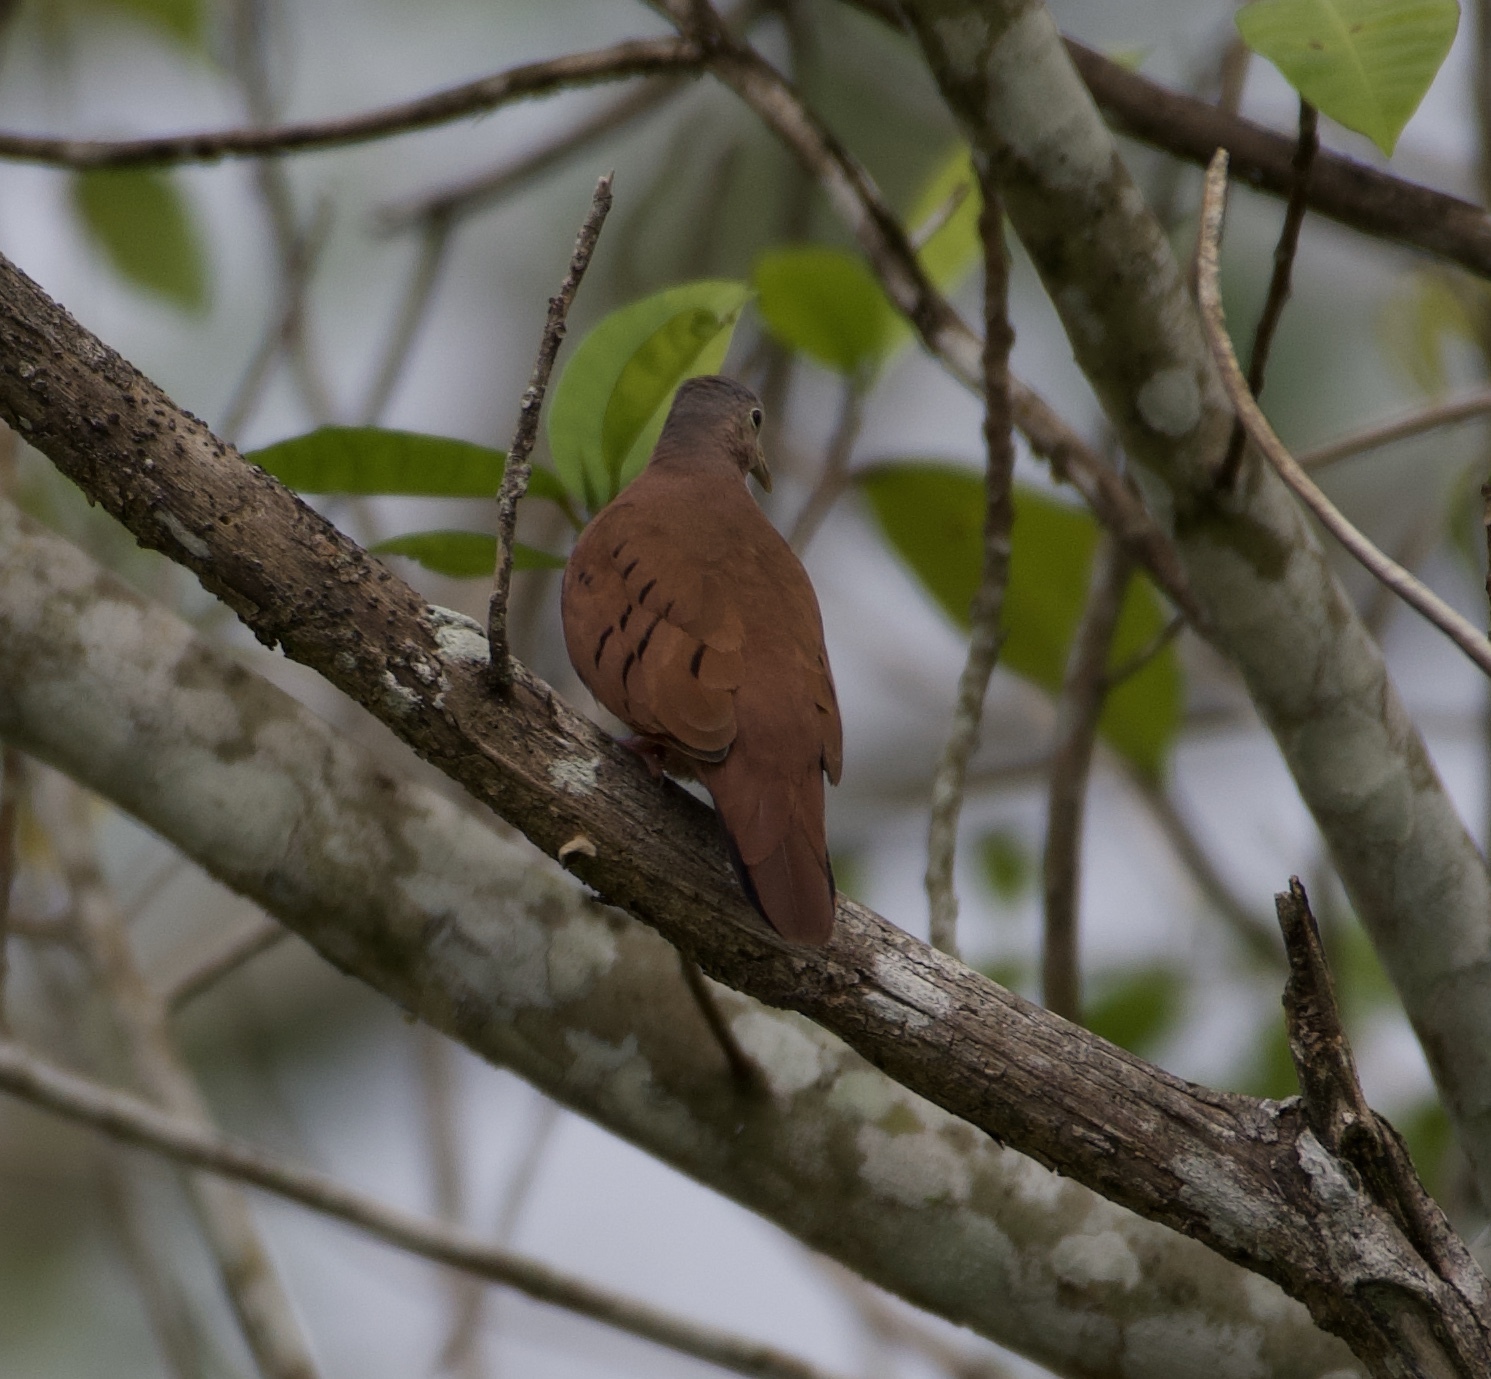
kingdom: Animalia
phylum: Chordata
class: Aves
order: Columbiformes
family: Columbidae
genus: Columbina
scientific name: Columbina talpacoti
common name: Ruddy ground dove
